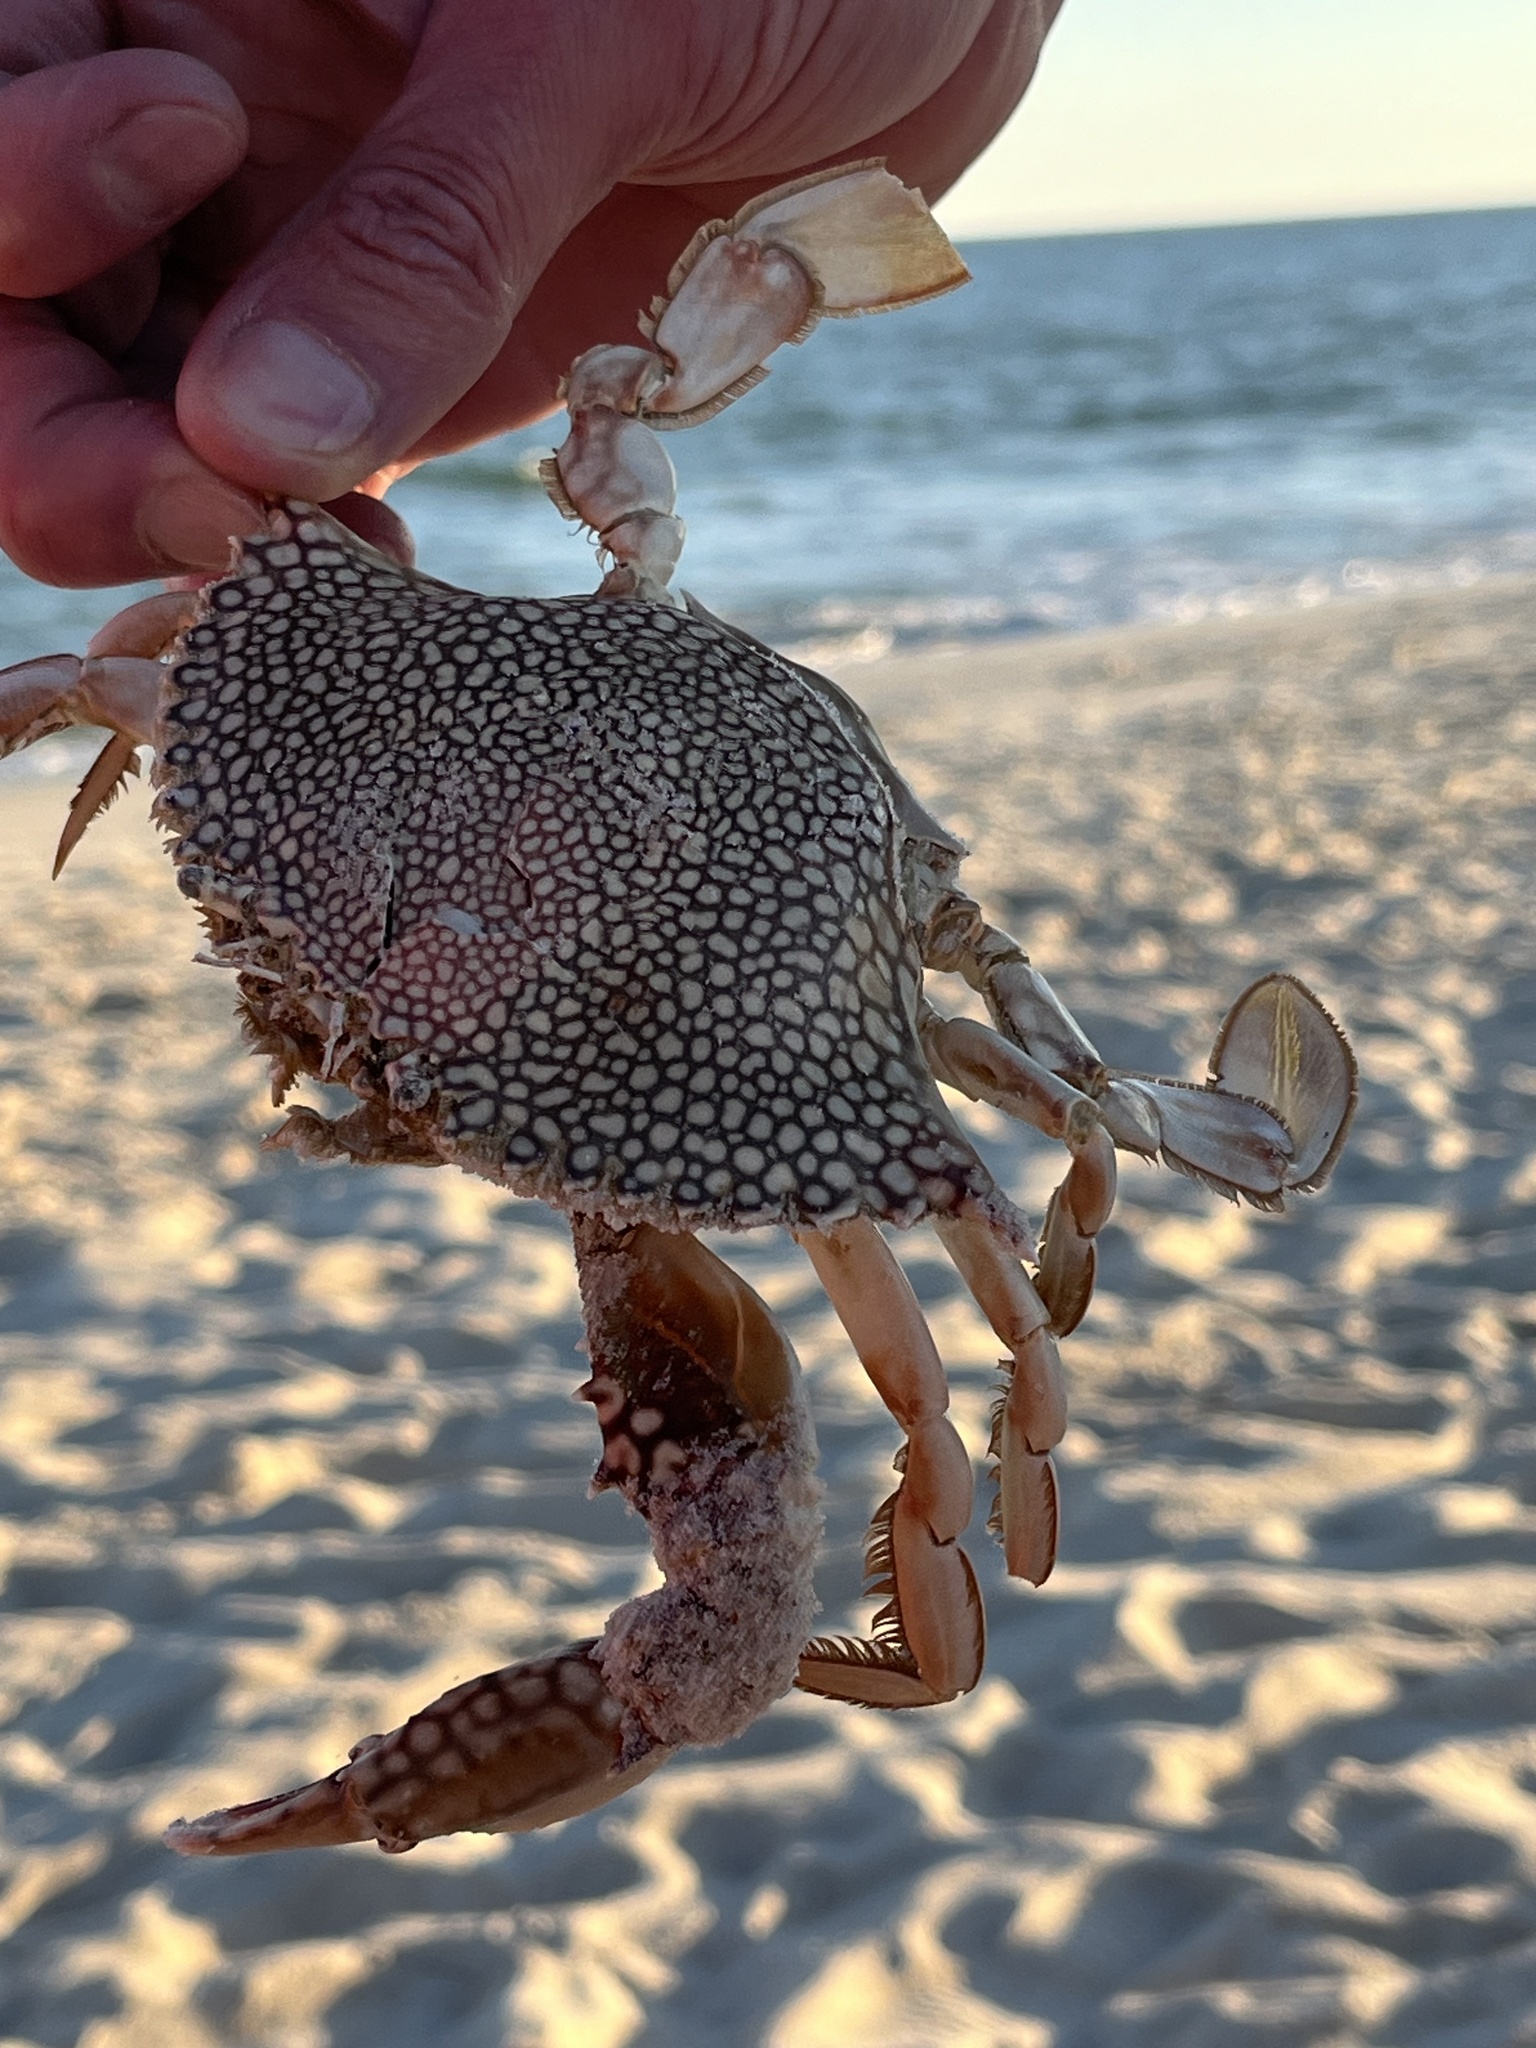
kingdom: Animalia
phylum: Arthropoda
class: Malacostraca
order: Decapoda
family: Portunidae
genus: Arenaeus
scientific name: Arenaeus cribrarius
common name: Speckled crab
